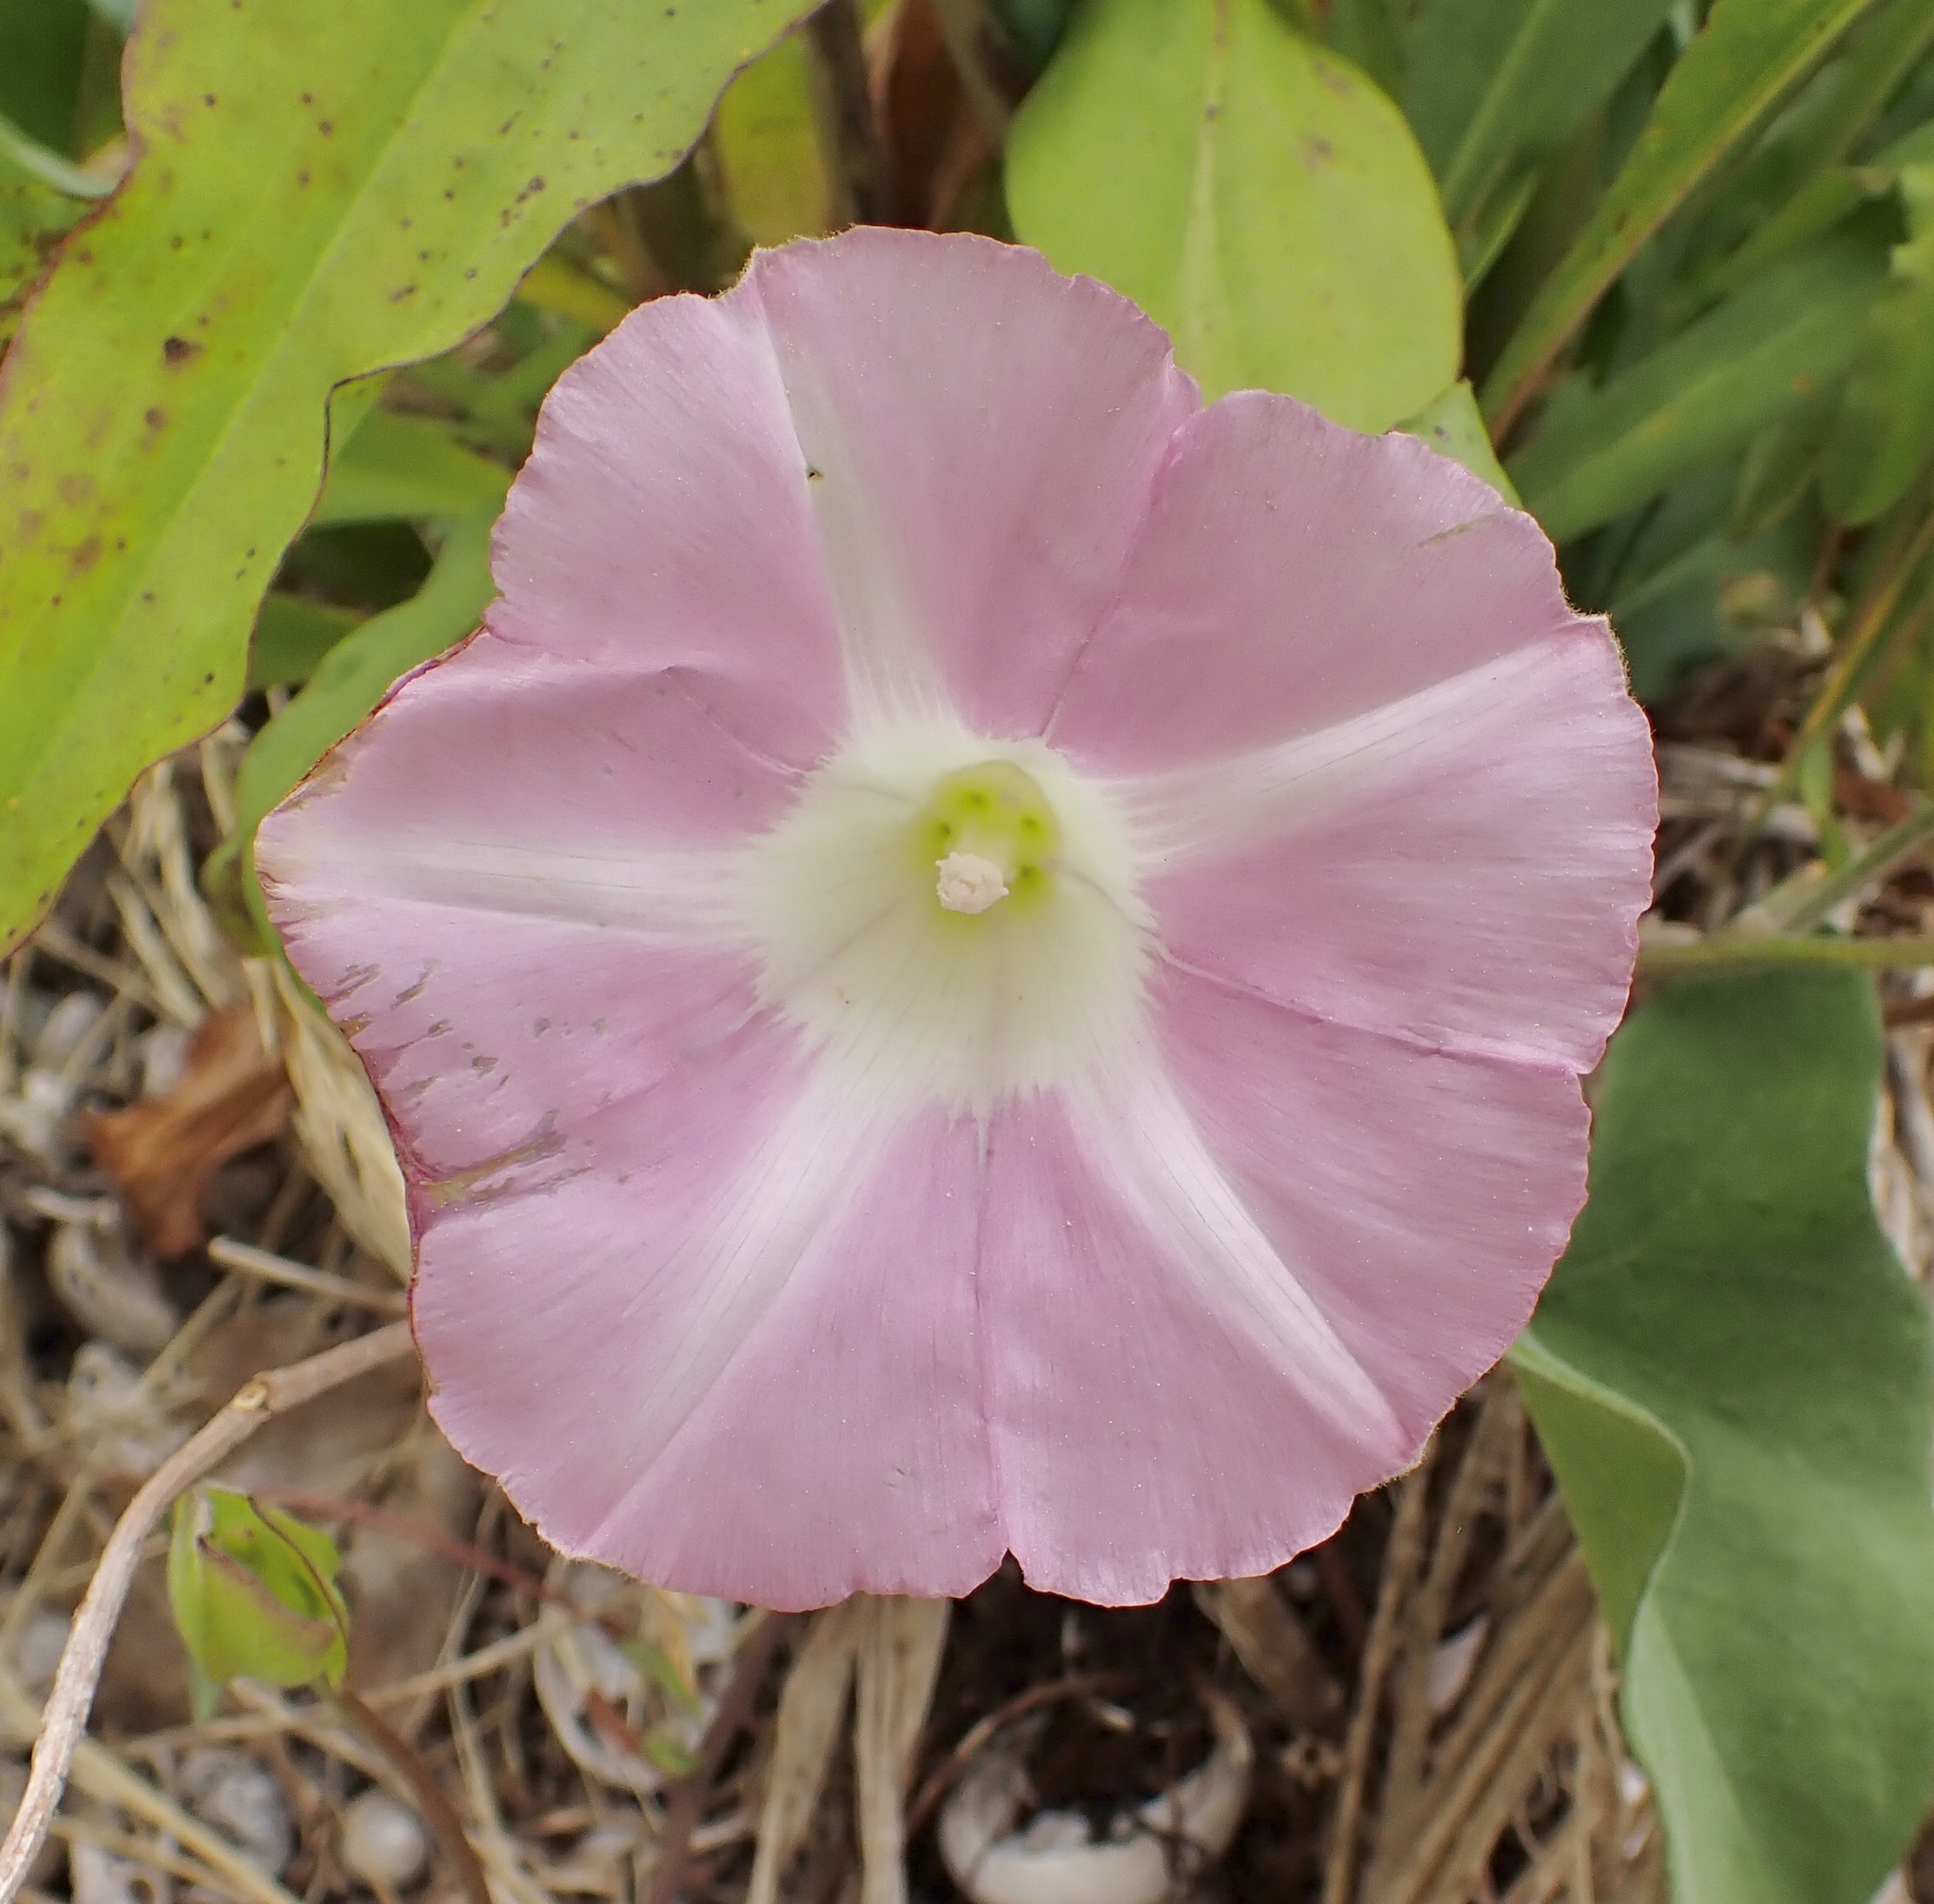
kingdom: Plantae
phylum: Tracheophyta
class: Magnoliopsida
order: Solanales
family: Convolvulaceae
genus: Calystegia
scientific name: Calystegia sepium
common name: Hedge bindweed
